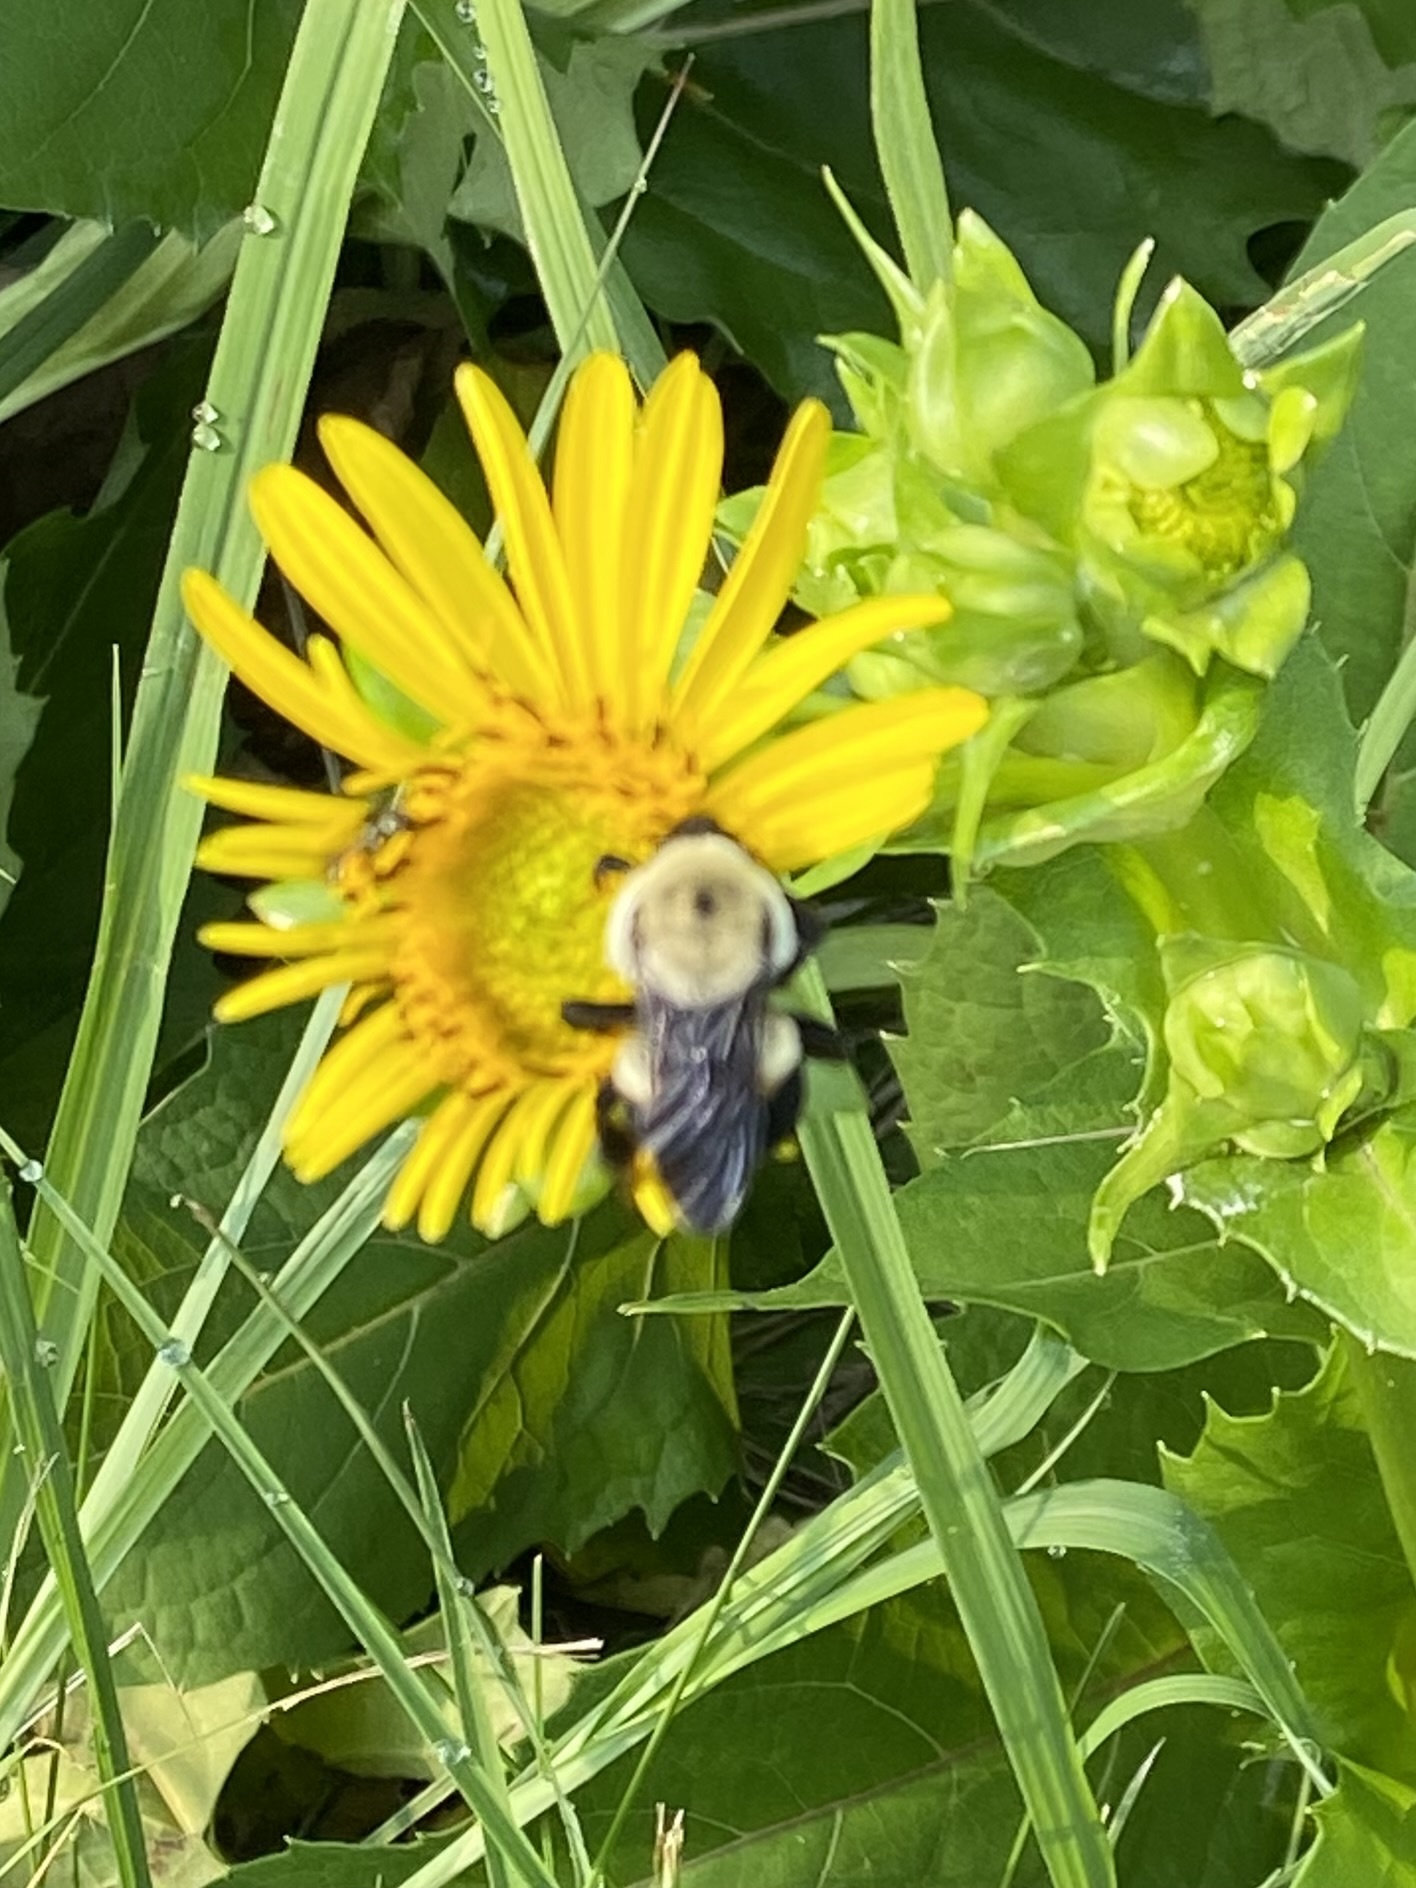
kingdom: Animalia
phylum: Arthropoda
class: Insecta
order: Hymenoptera
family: Apidae
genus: Bombus
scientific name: Bombus griseocollis
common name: Brown-belted bumble bee
